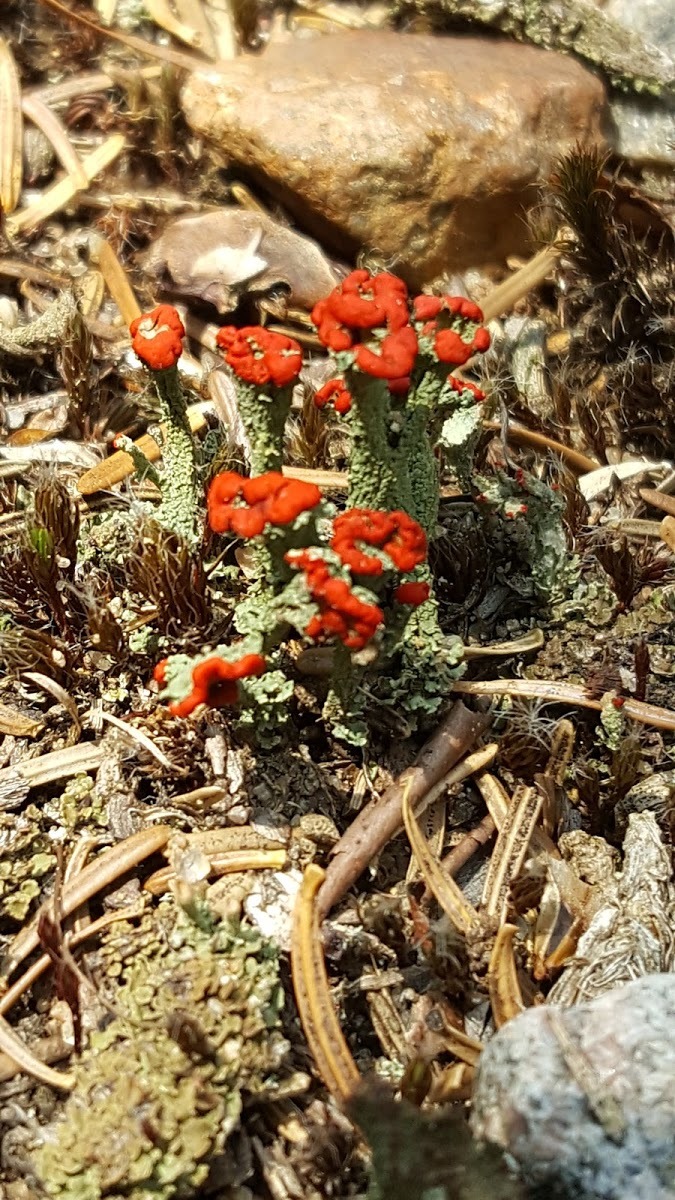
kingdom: Fungi
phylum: Ascomycota
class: Lecanoromycetes
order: Lecanorales
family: Cladoniaceae
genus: Cladonia
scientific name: Cladonia cristatella
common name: British soldier lichen
